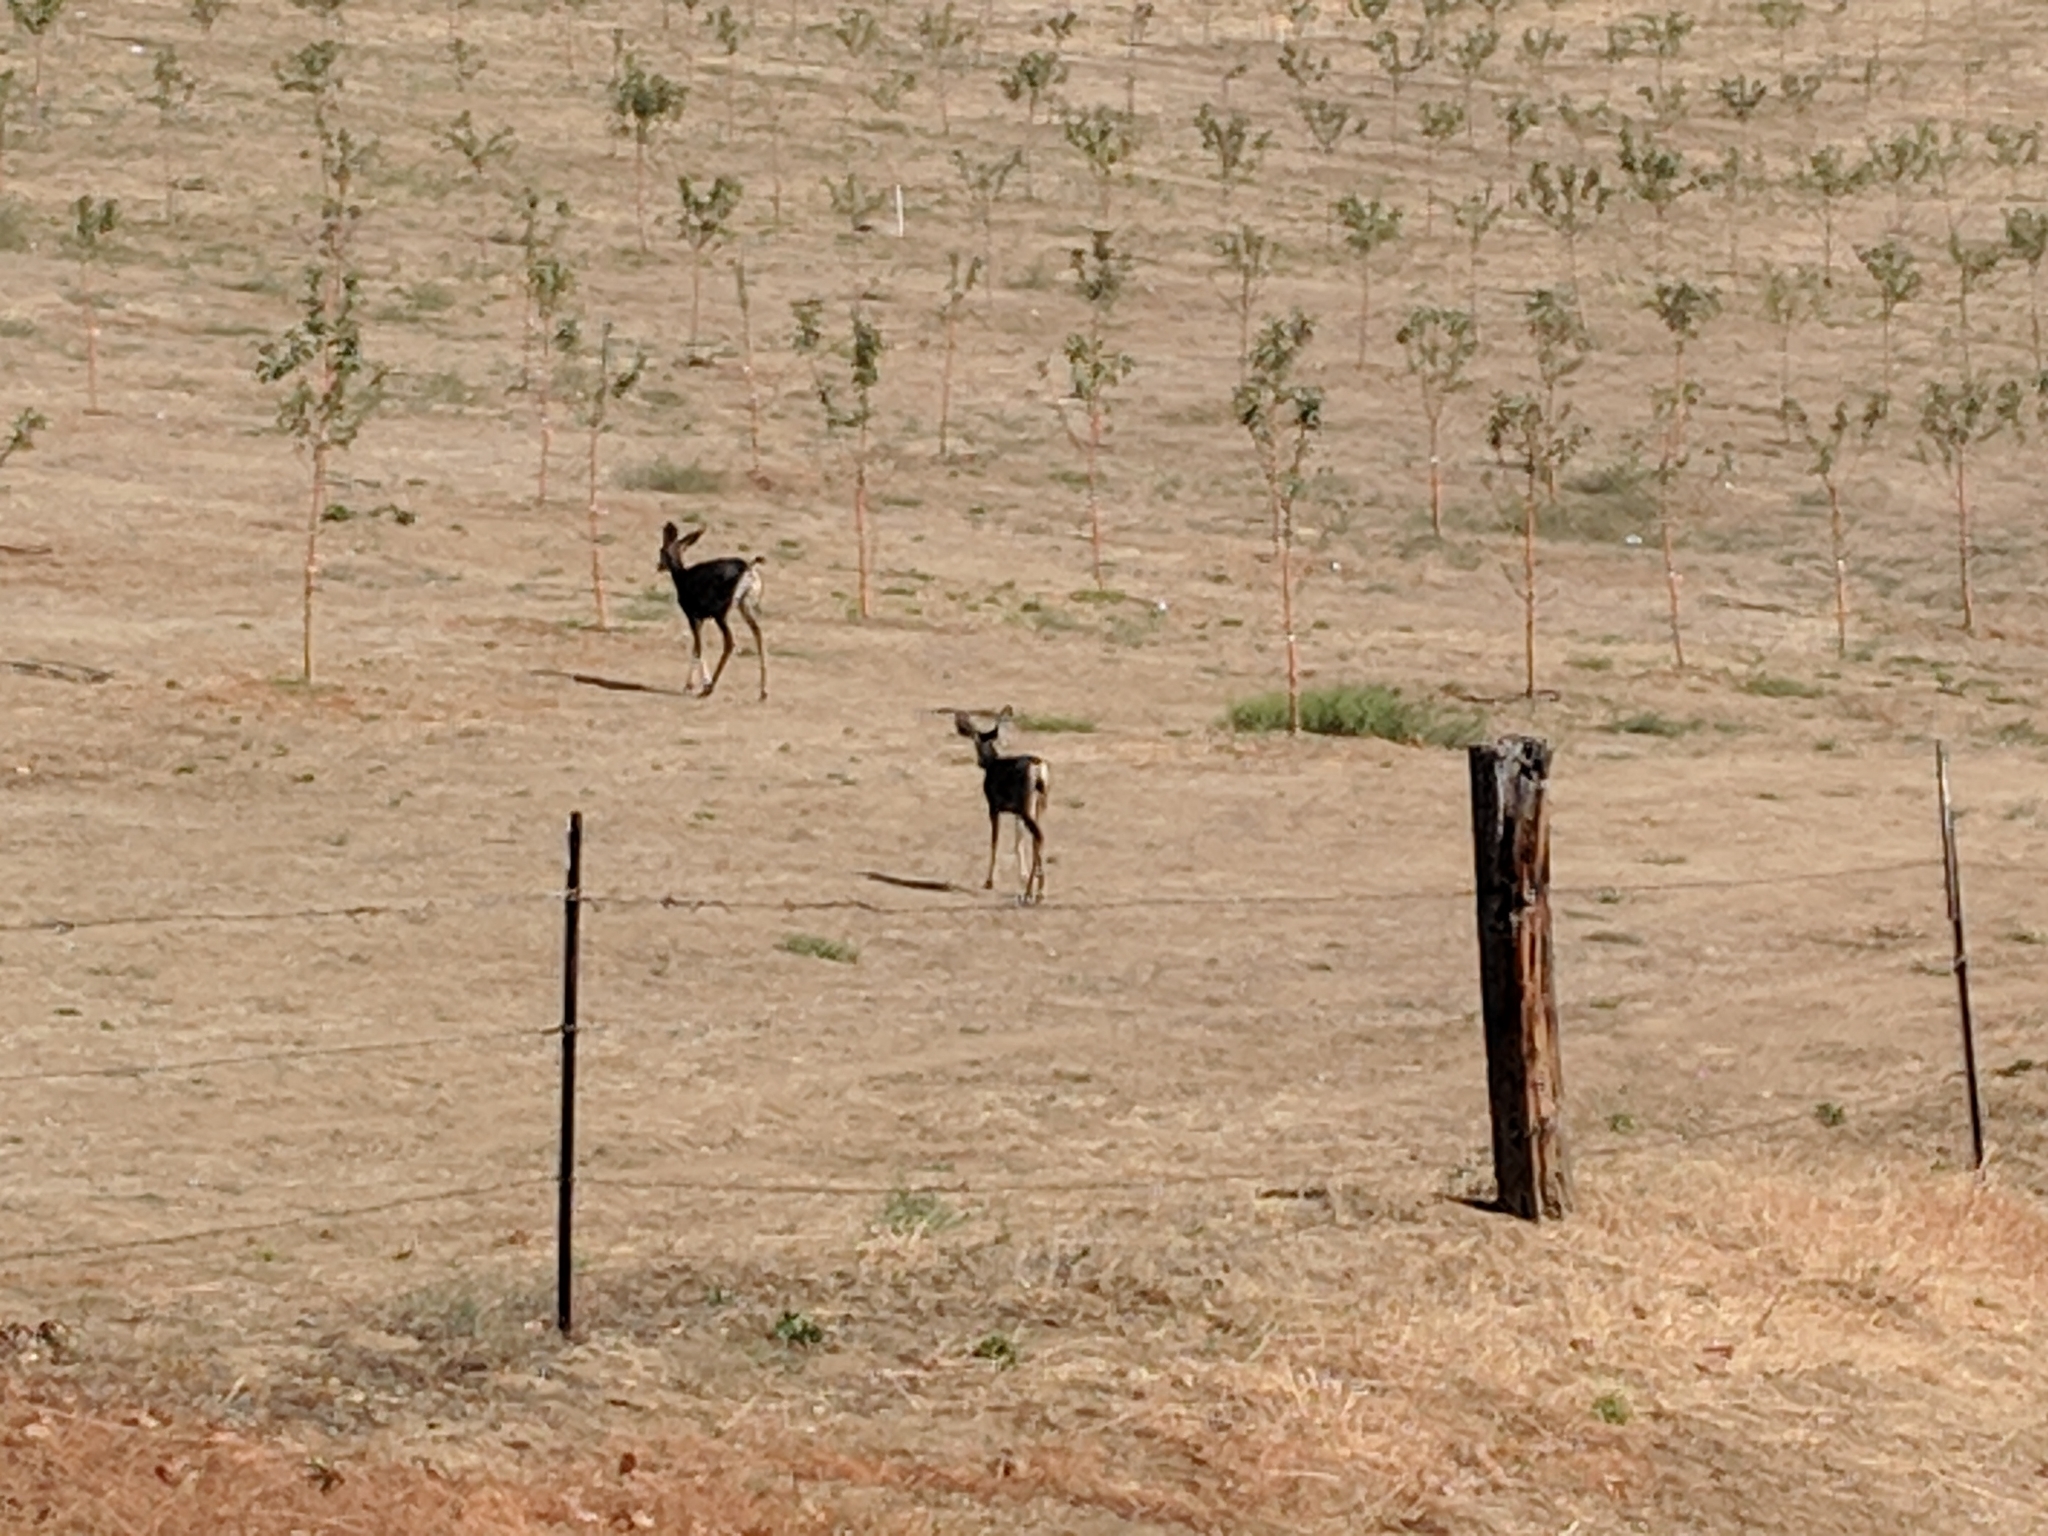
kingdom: Animalia
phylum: Chordata
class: Mammalia
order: Artiodactyla
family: Cervidae
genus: Odocoileus
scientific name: Odocoileus hemionus
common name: Mule deer
